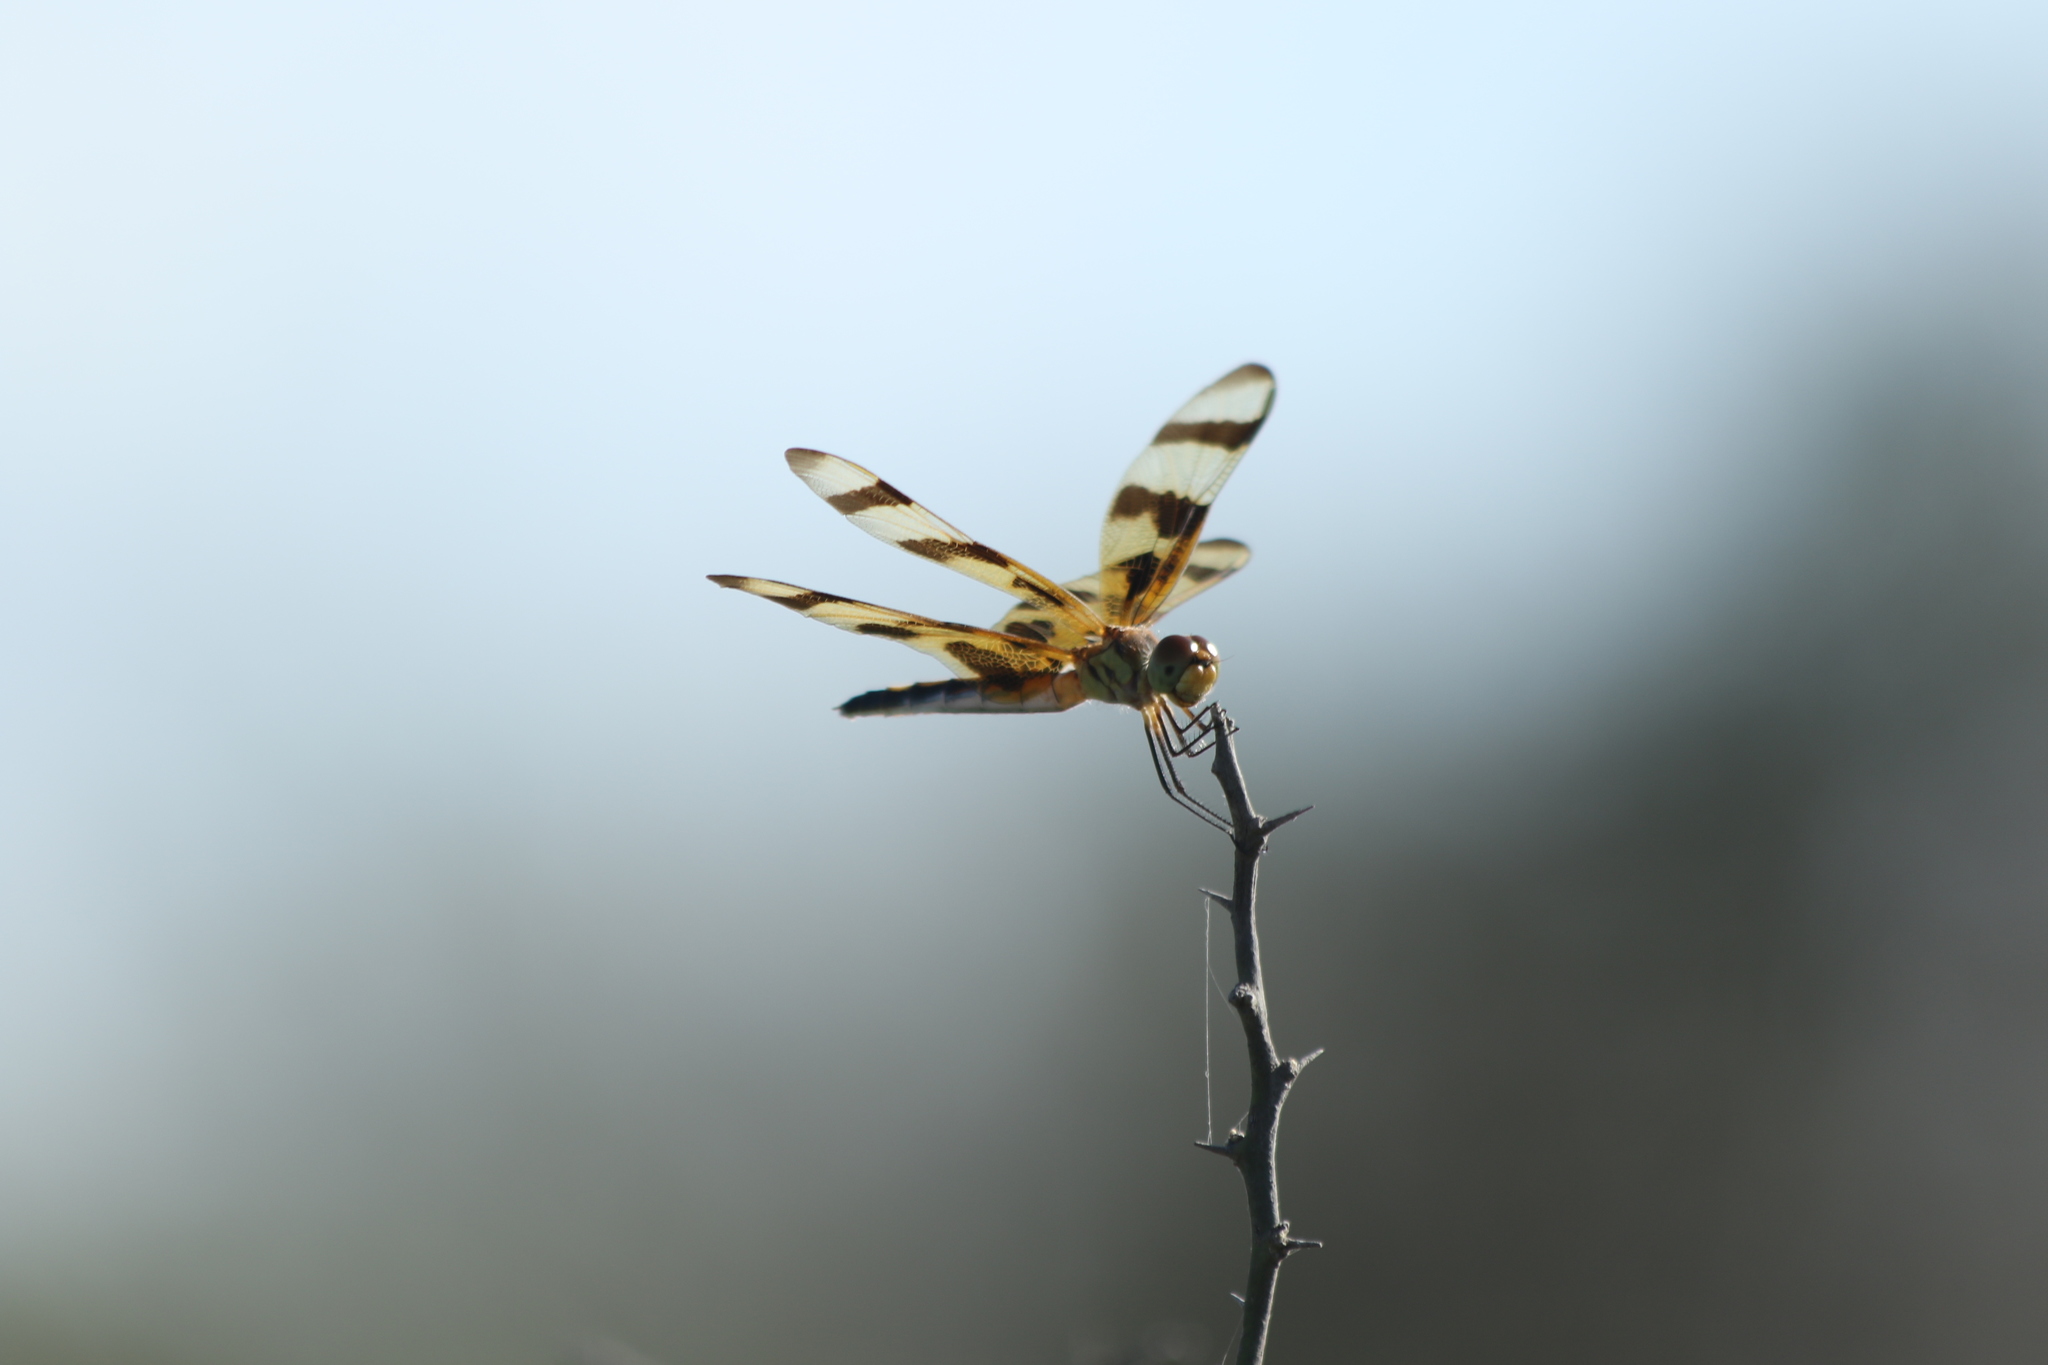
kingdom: Animalia
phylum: Arthropoda
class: Insecta
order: Odonata
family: Libellulidae
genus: Celithemis
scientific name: Celithemis eponina
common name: Halloween pennant
